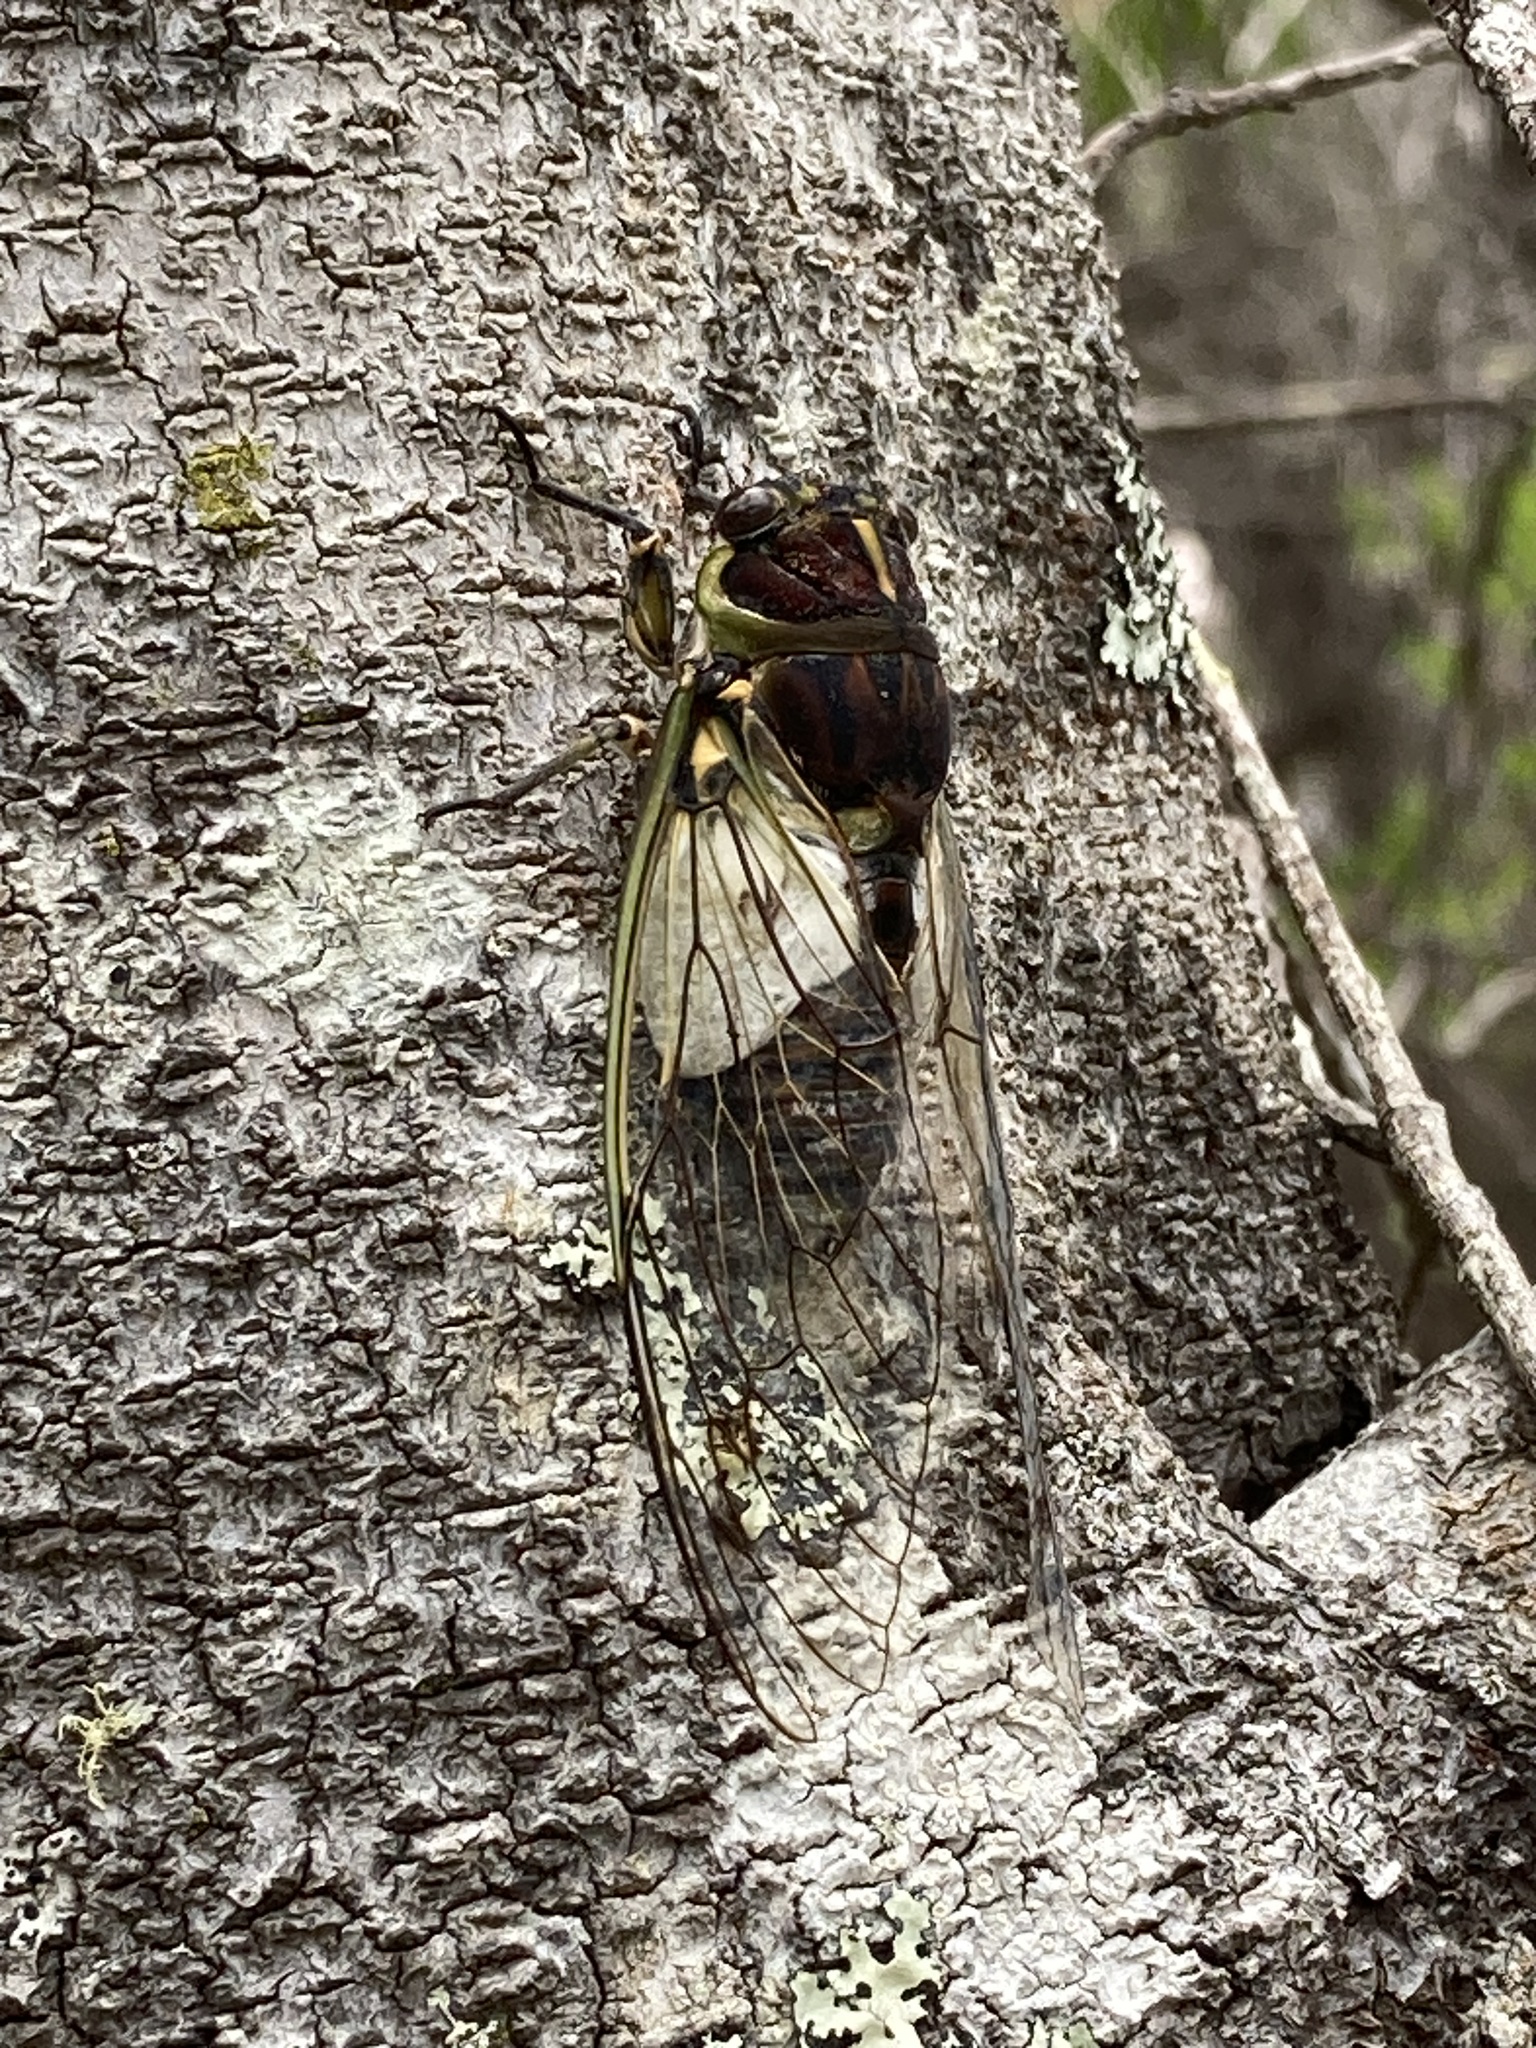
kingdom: Animalia
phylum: Arthropoda
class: Insecta
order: Hemiptera
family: Cicadidae
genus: Arunta
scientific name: Arunta perulata
